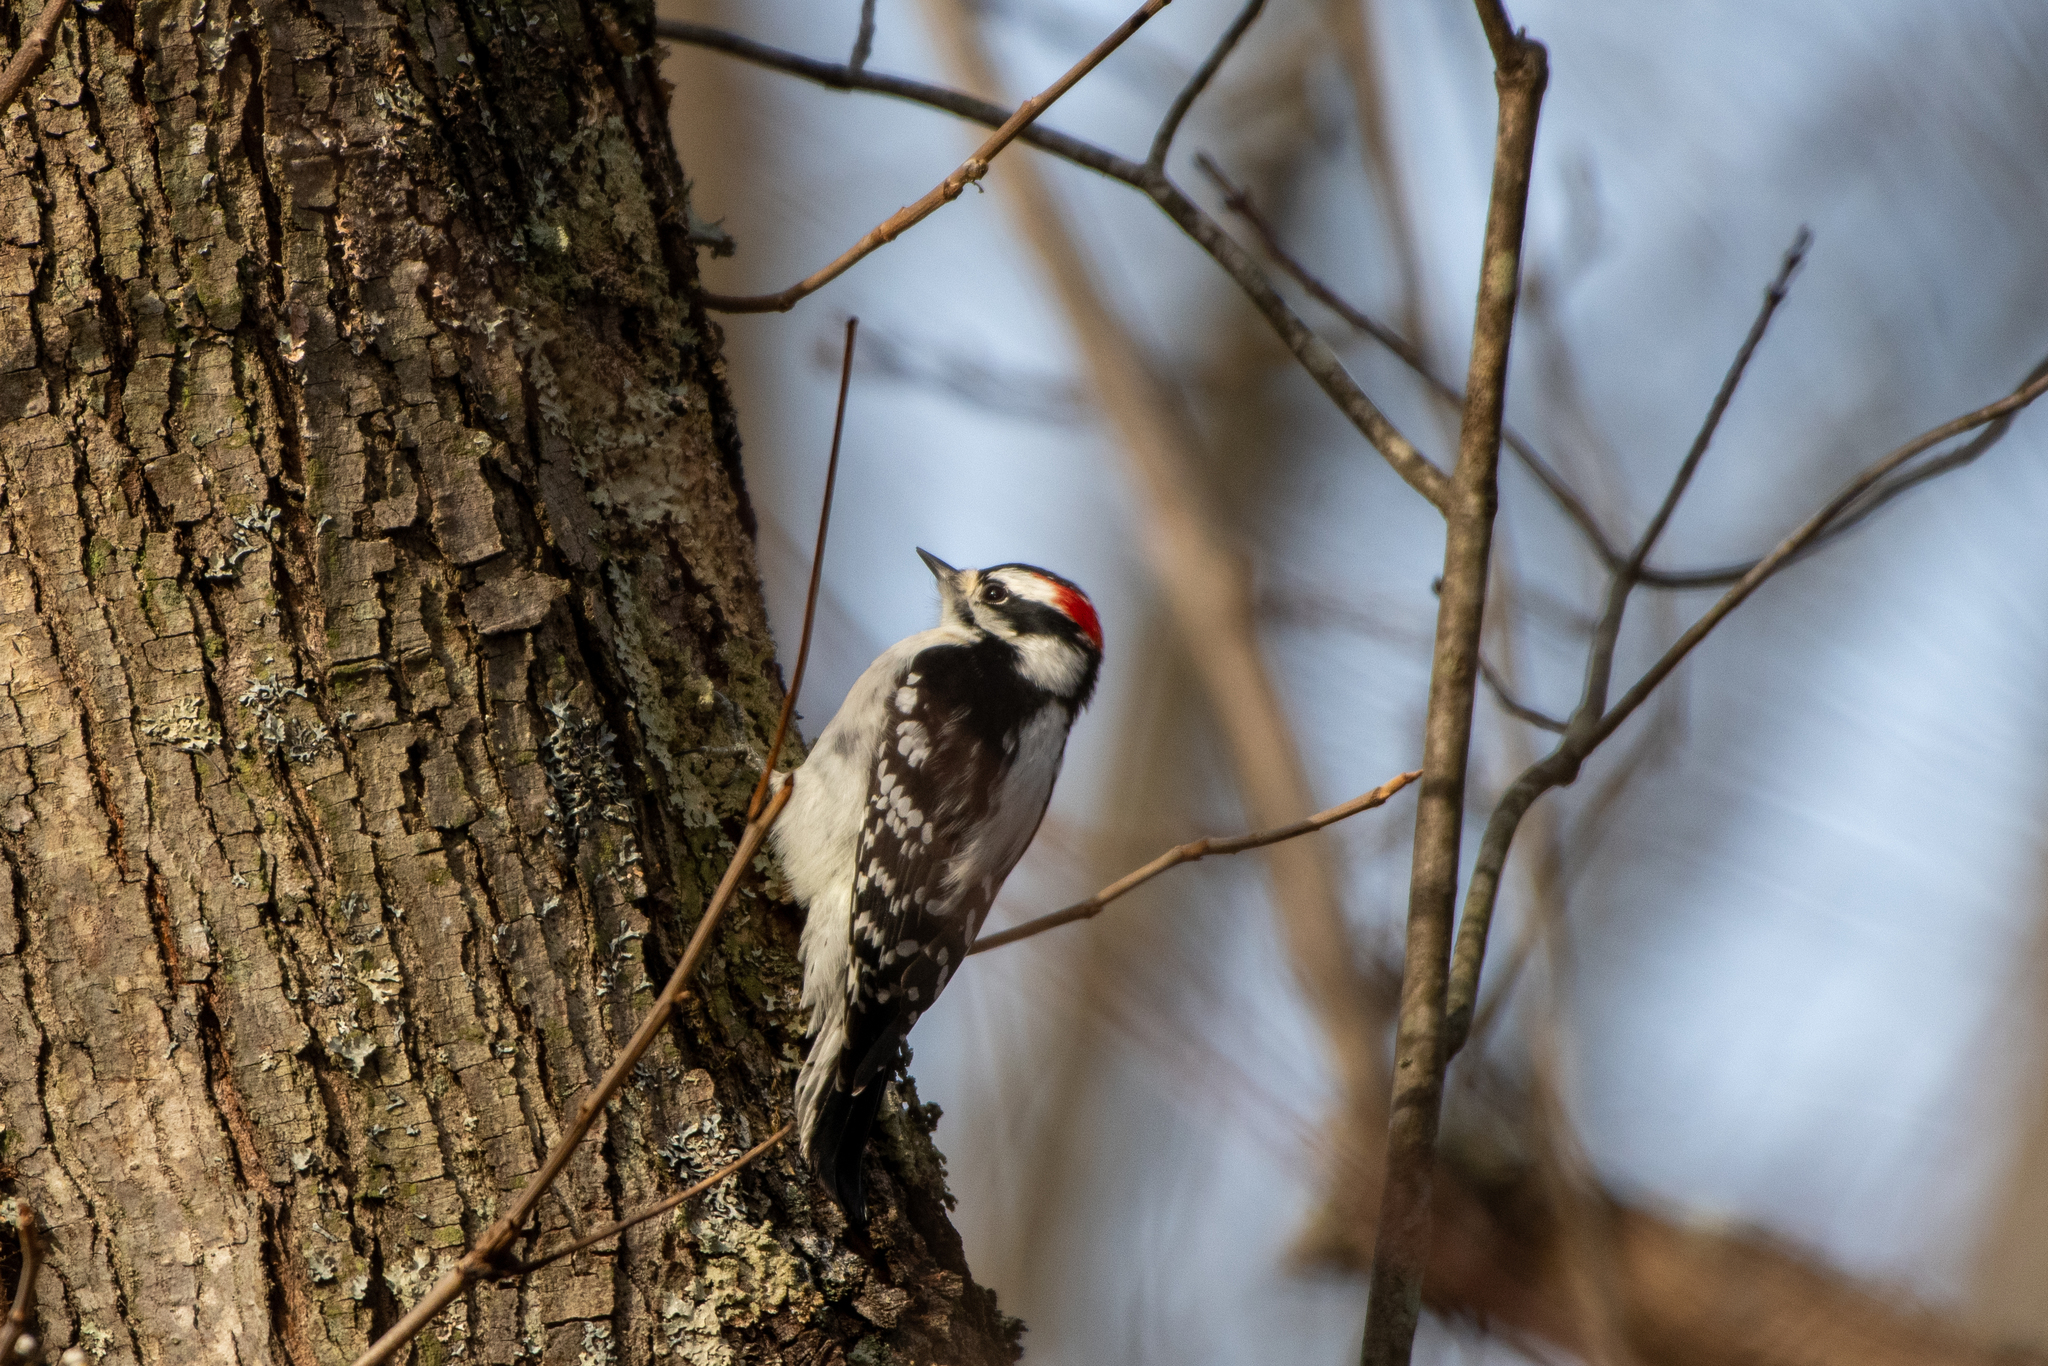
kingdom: Animalia
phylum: Chordata
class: Aves
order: Piciformes
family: Picidae
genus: Dryobates
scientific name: Dryobates pubescens
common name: Downy woodpecker
